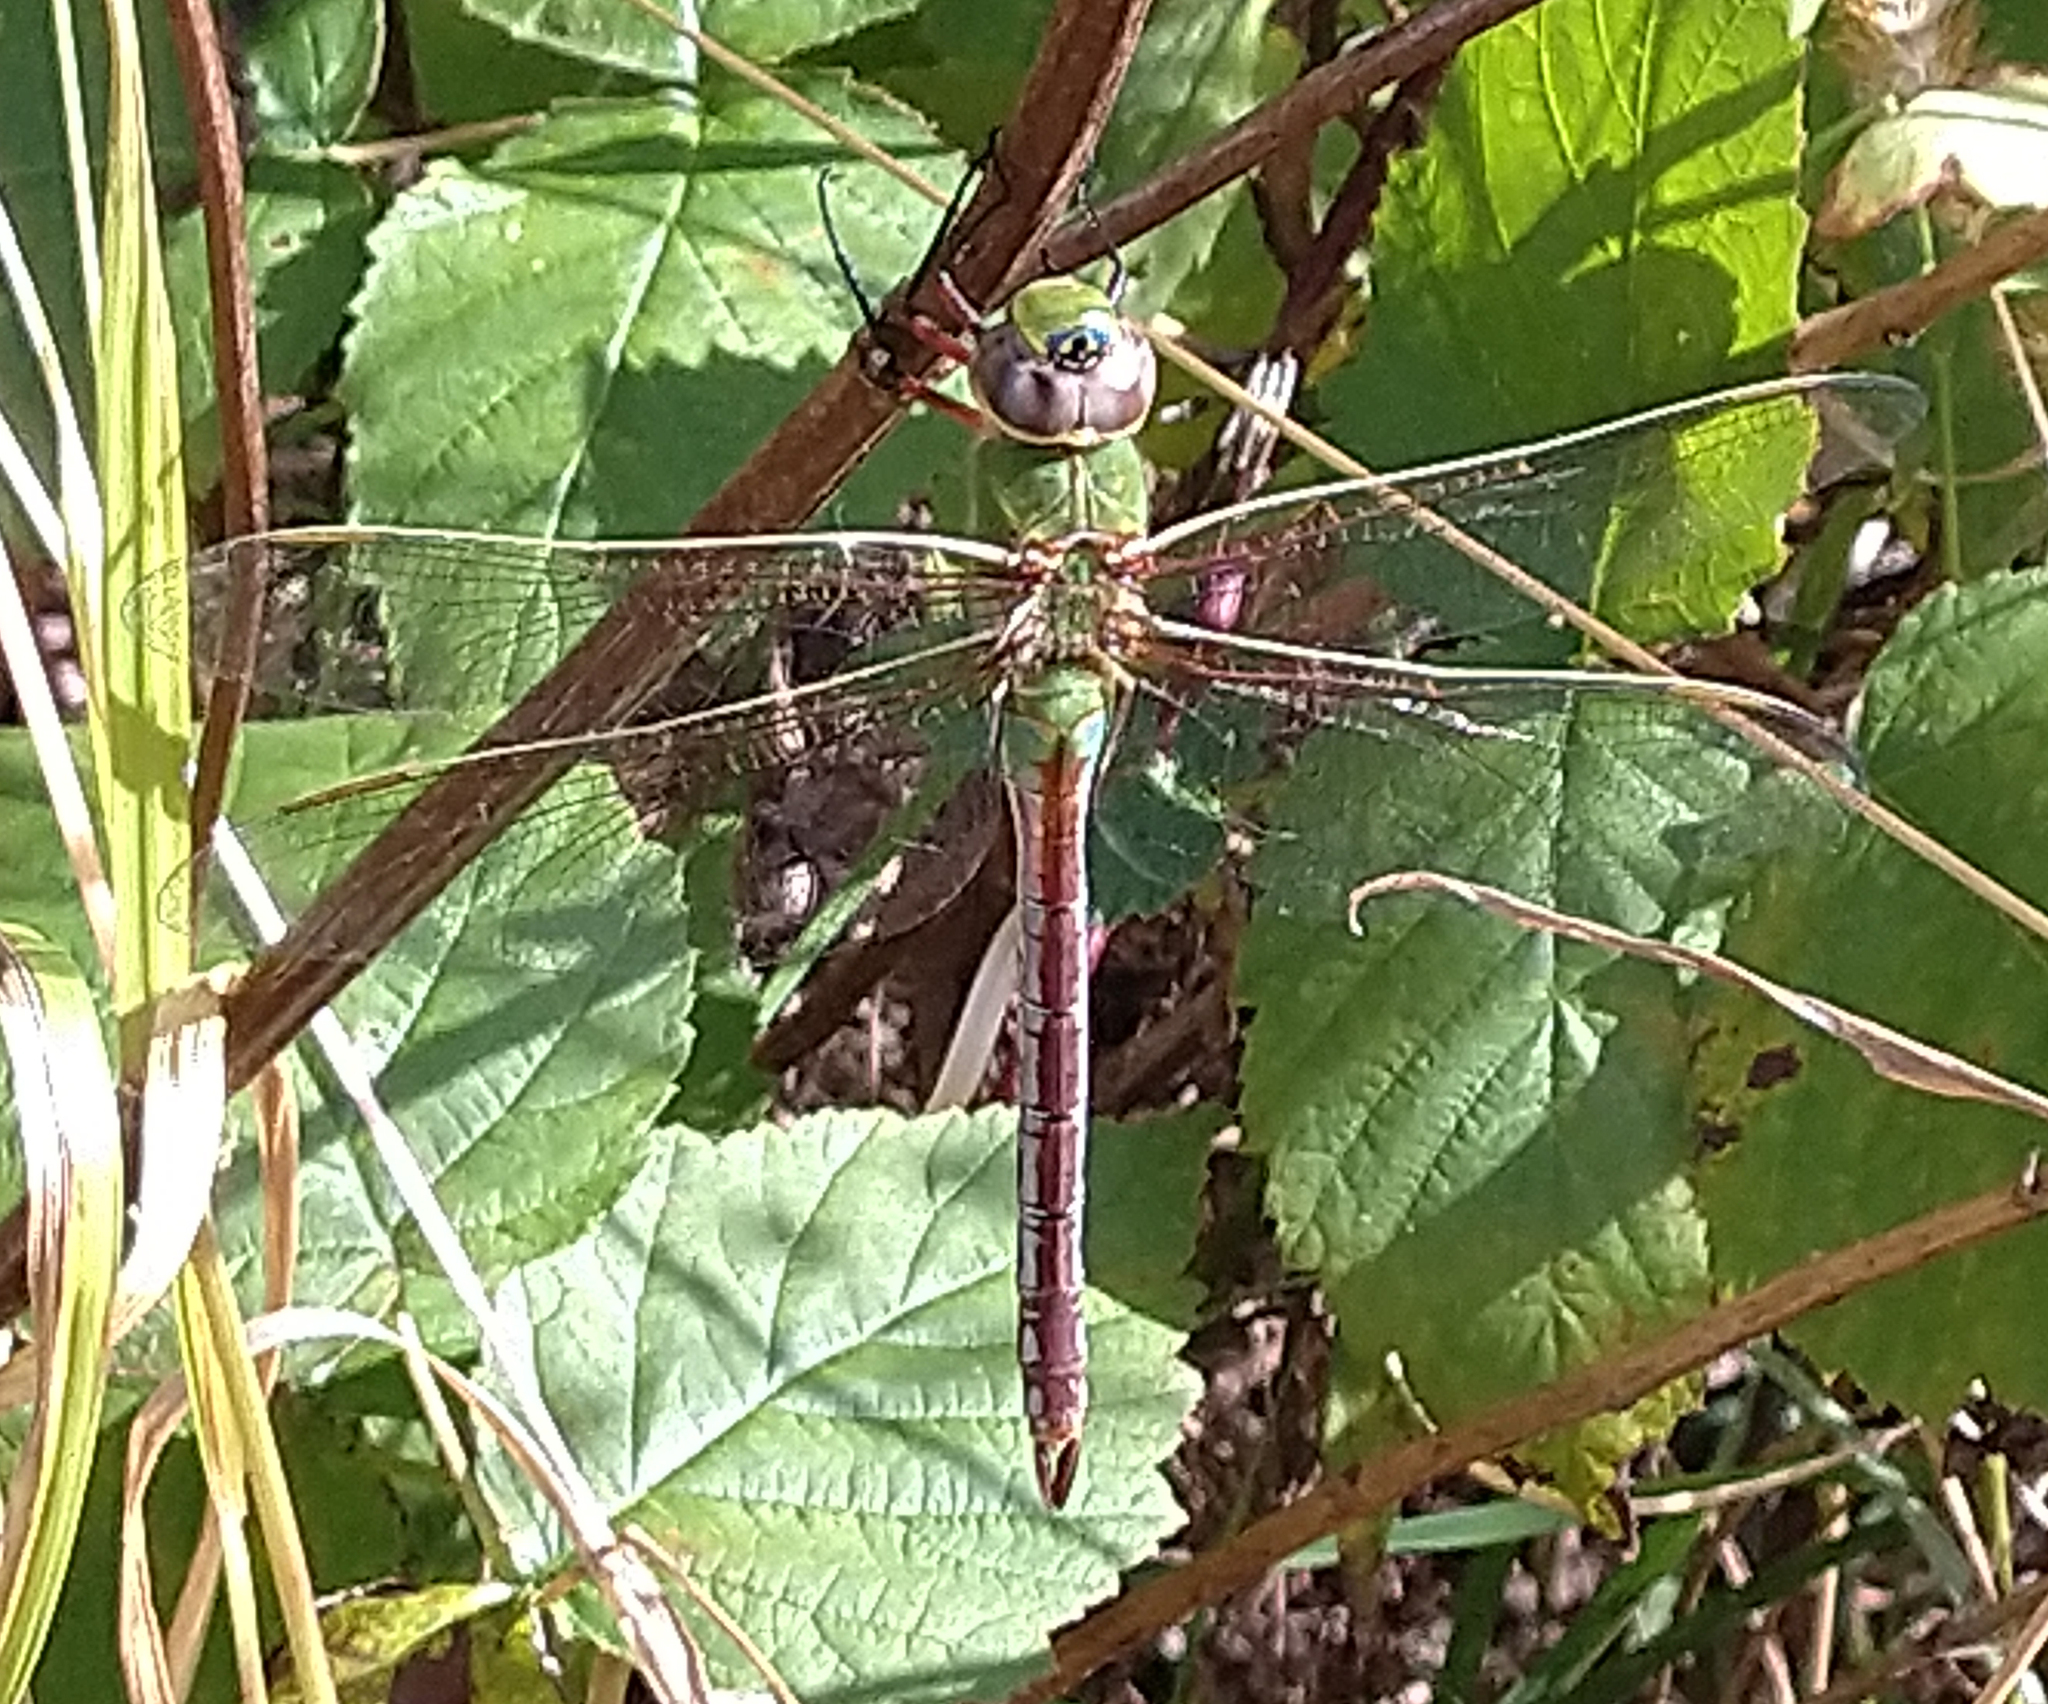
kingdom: Animalia
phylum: Arthropoda
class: Insecta
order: Odonata
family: Aeshnidae
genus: Anax
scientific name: Anax junius
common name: Common green darner
